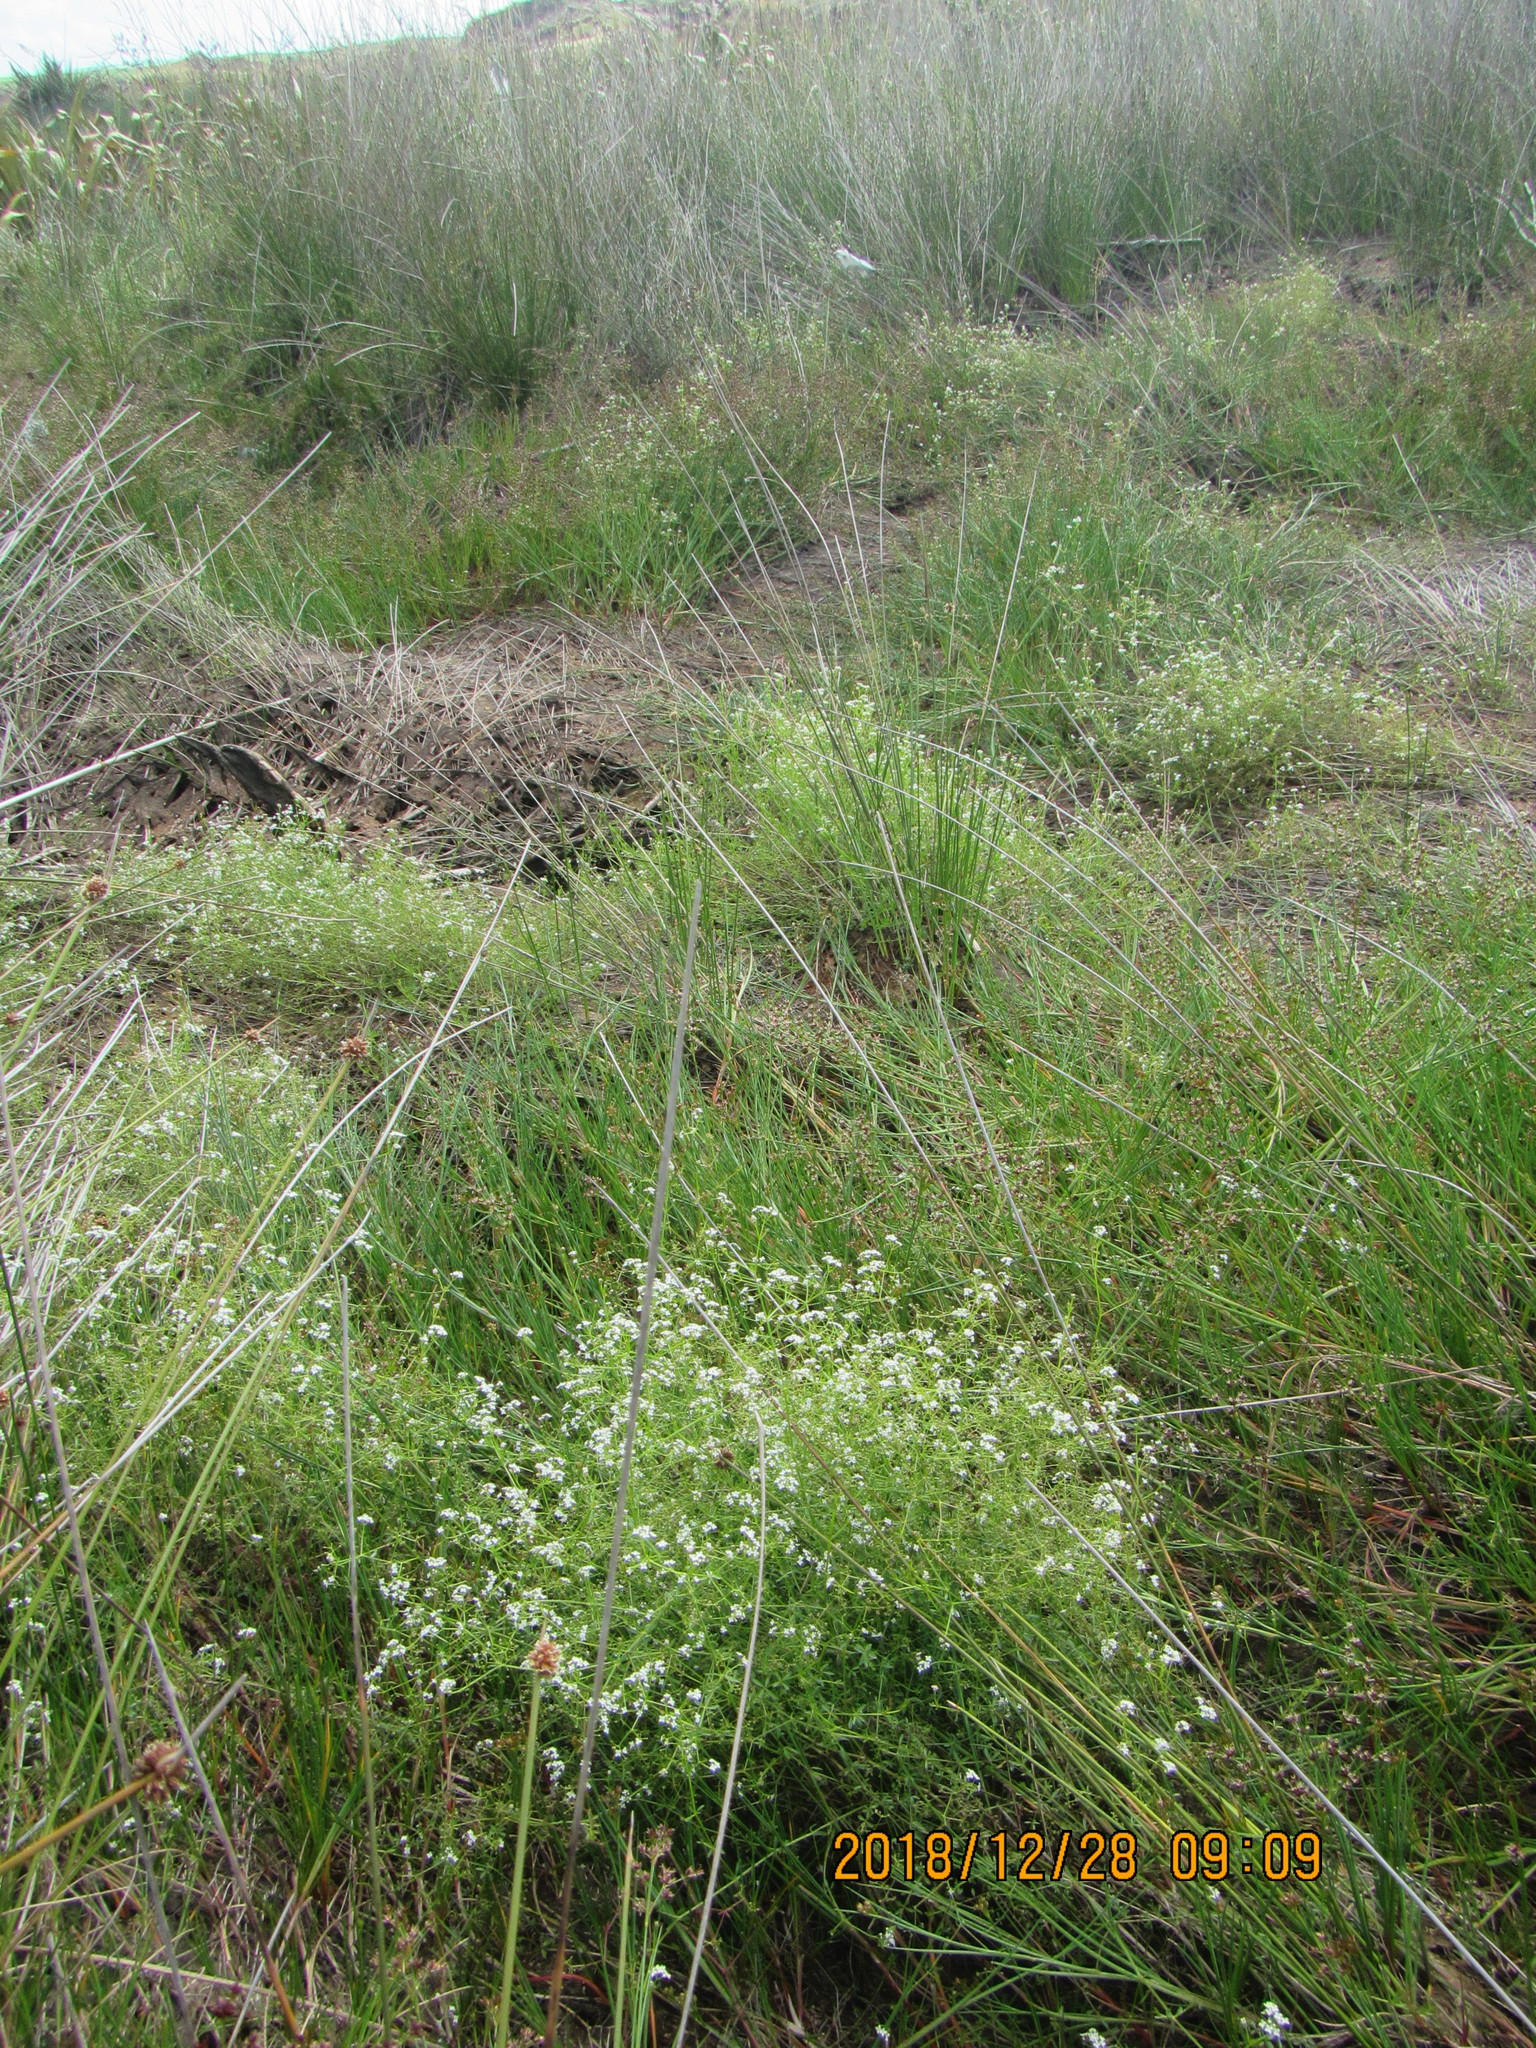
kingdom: Plantae
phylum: Tracheophyta
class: Magnoliopsida
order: Gentianales
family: Rubiaceae
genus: Galium
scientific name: Galium palustre
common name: Common marsh-bedstraw
